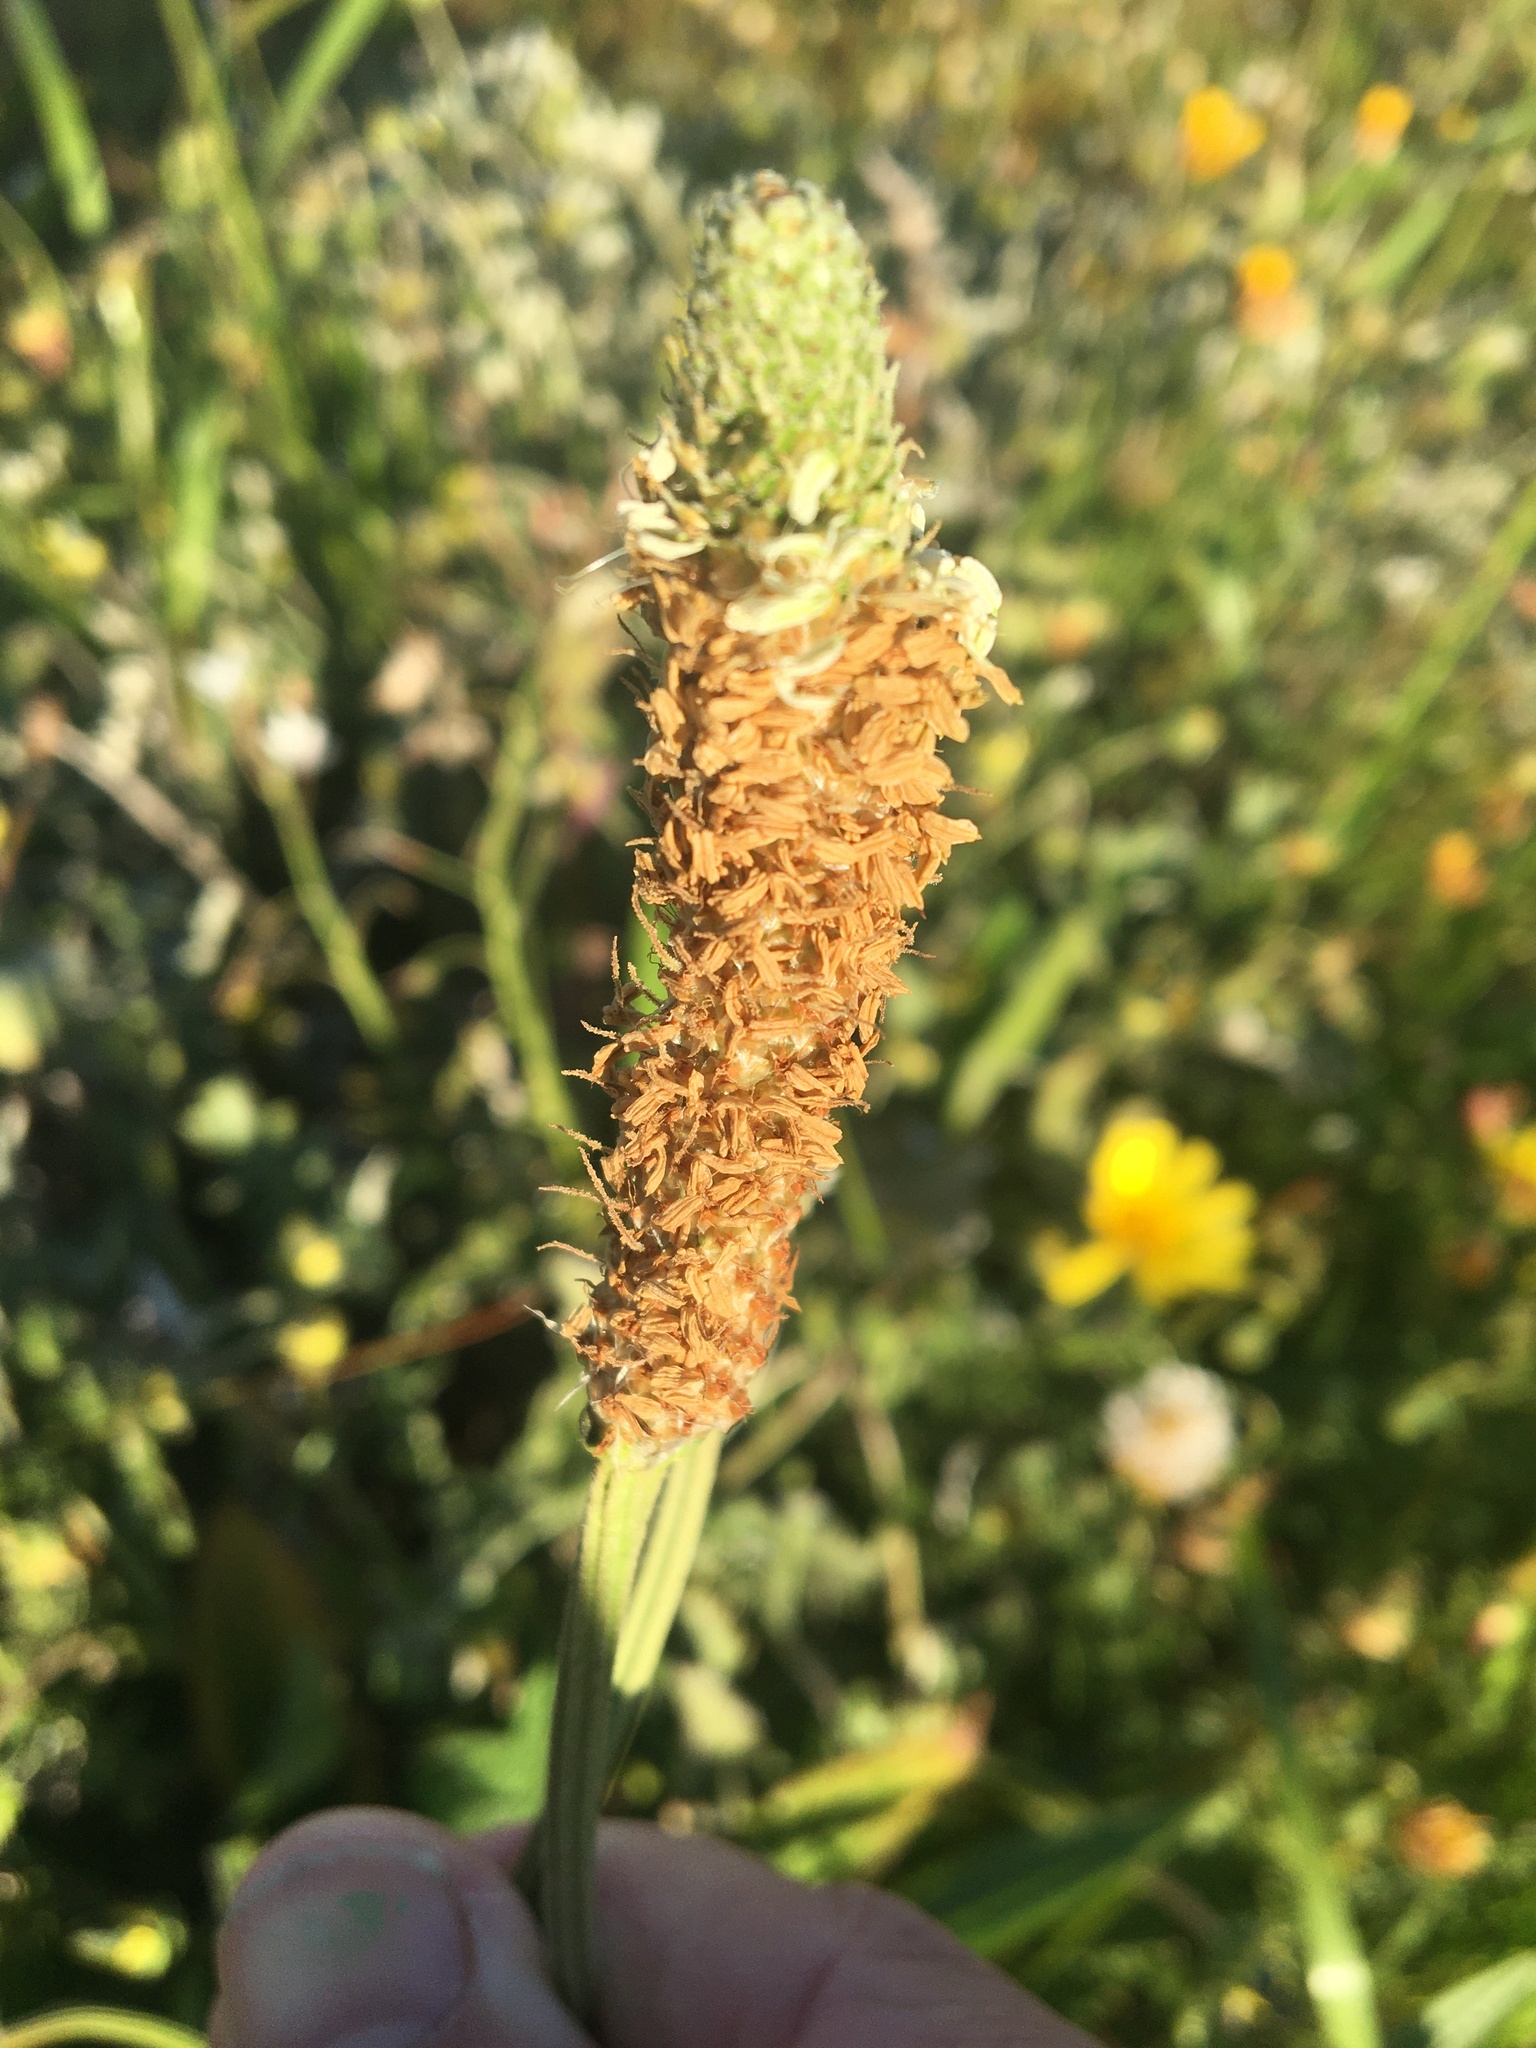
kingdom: Plantae
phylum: Tracheophyta
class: Magnoliopsida
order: Lamiales
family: Plantaginaceae
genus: Plantago
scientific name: Plantago lanceolata
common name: Ribwort plantain
